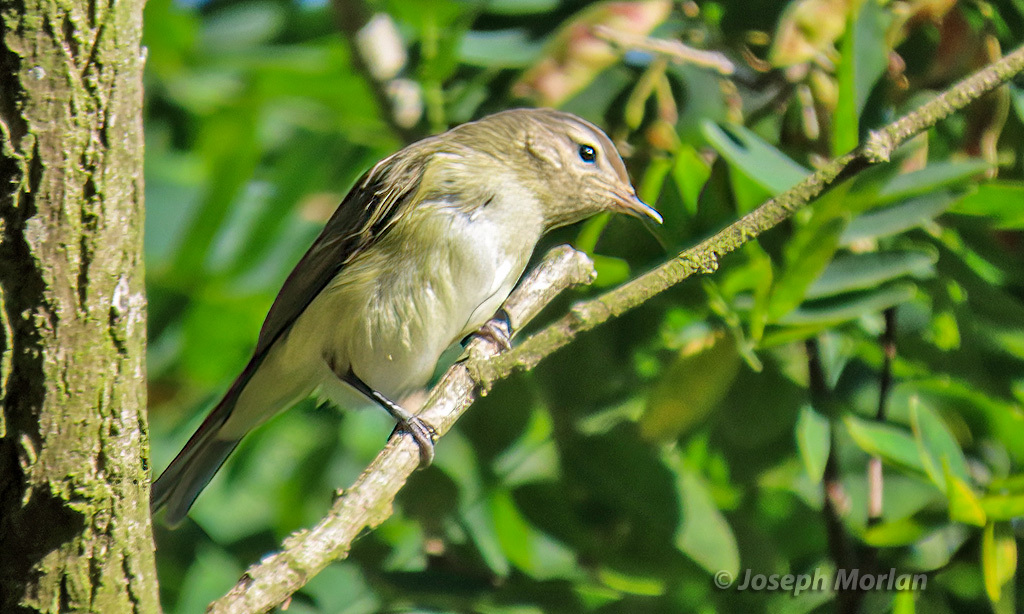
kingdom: Animalia
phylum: Chordata
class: Aves
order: Passeriformes
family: Vireonidae
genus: Vireo
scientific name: Vireo gilvus
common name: Warbling vireo
